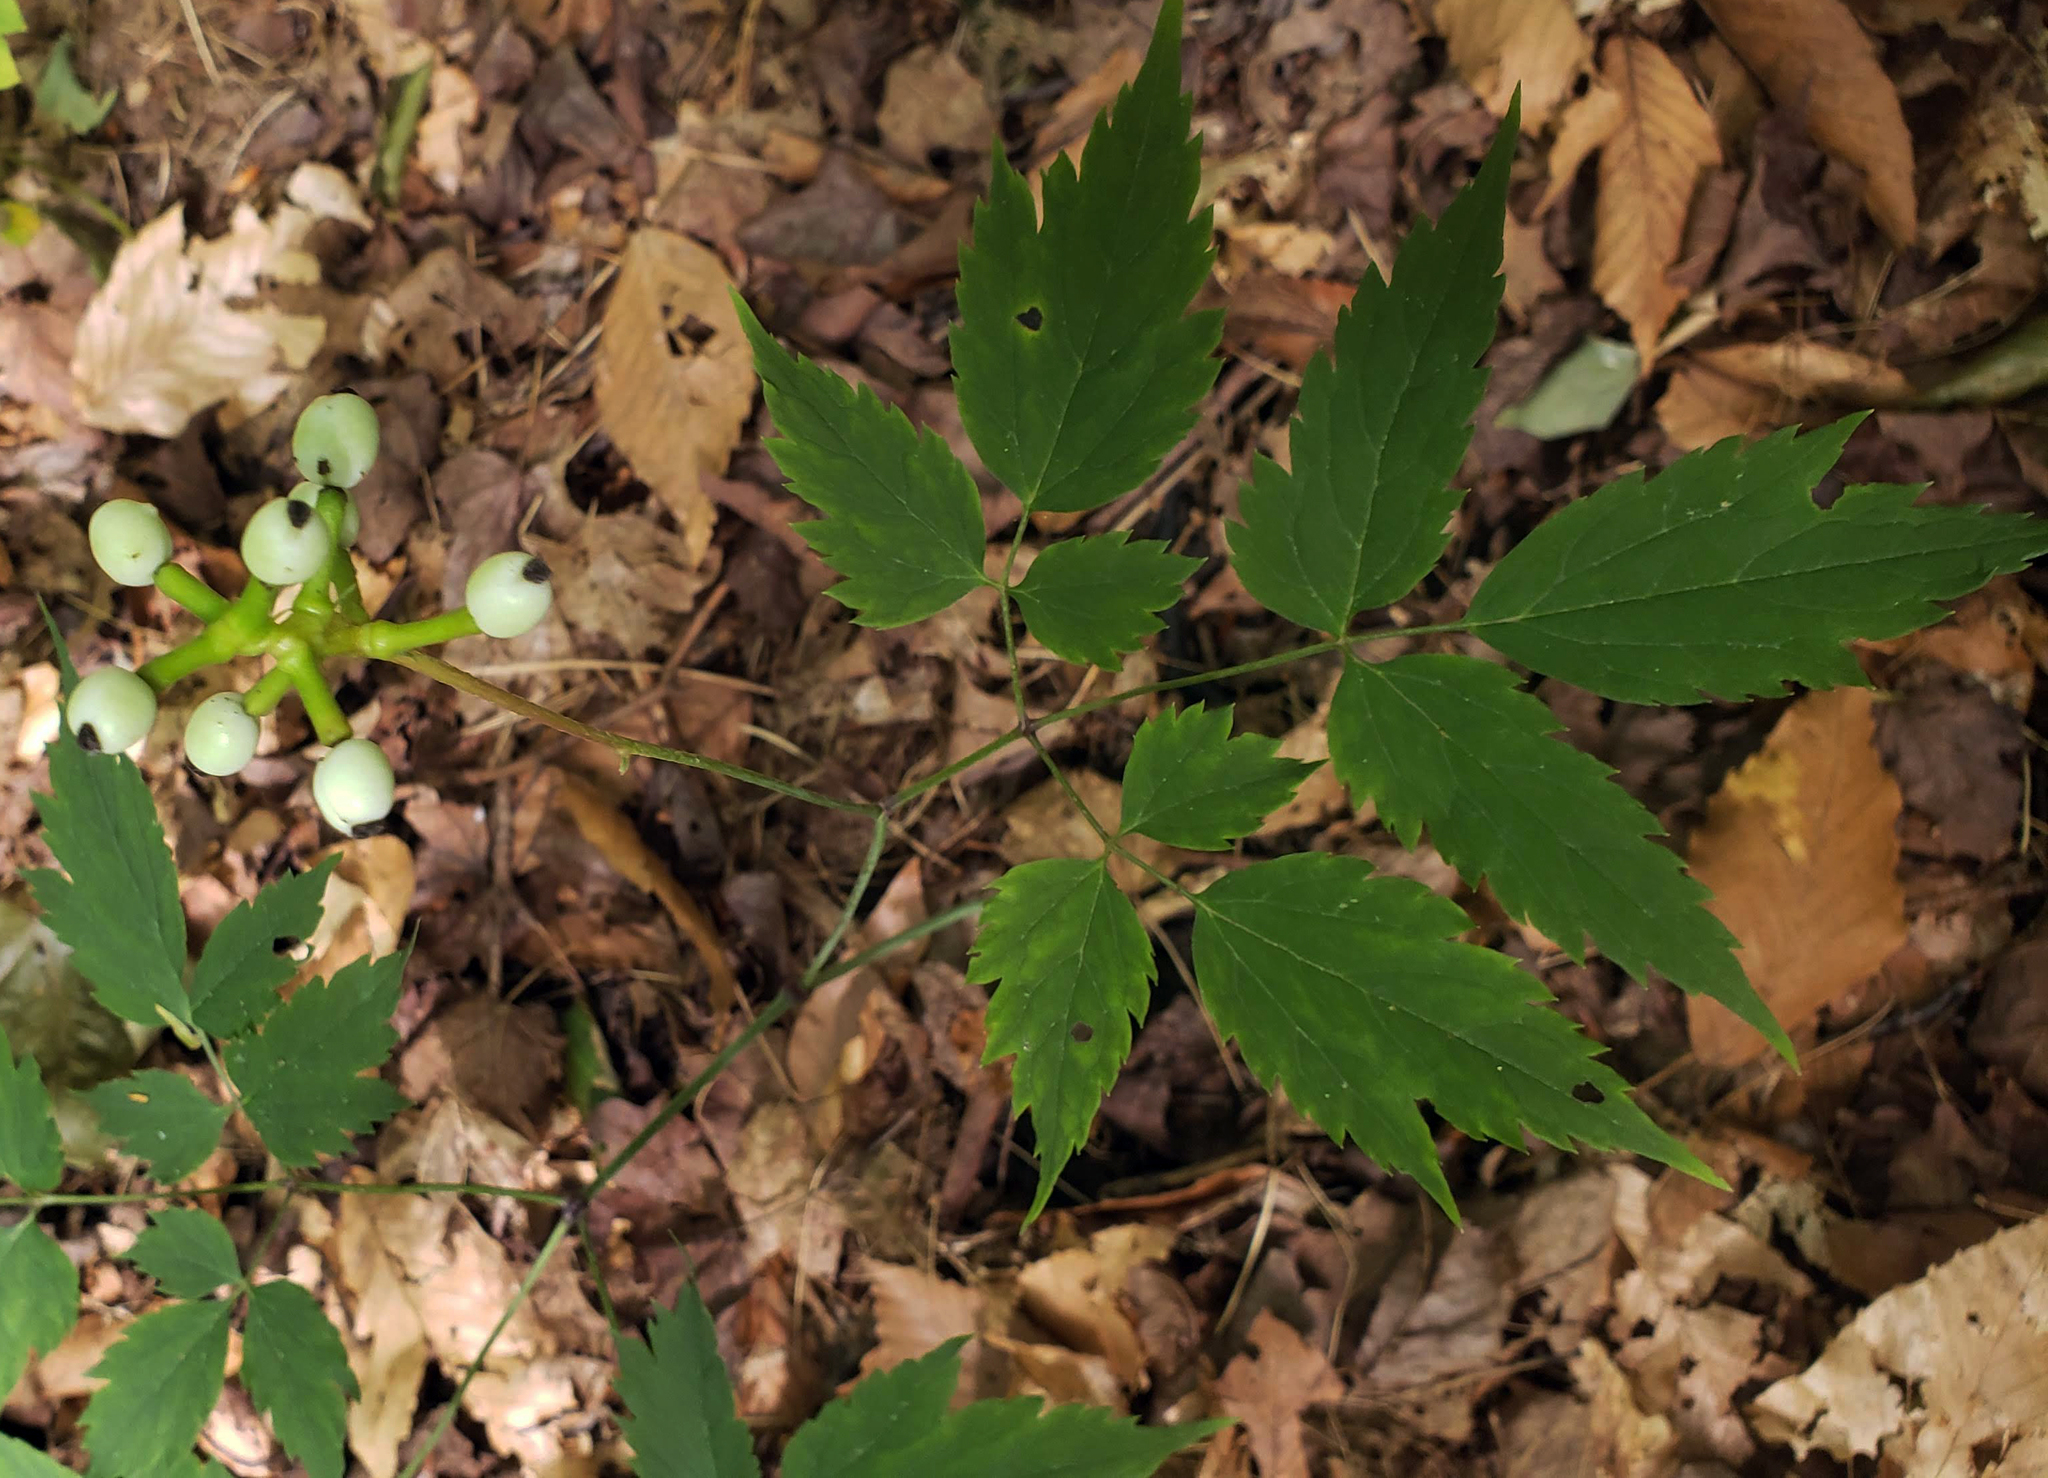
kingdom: Plantae
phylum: Tracheophyta
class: Magnoliopsida
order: Ranunculales
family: Ranunculaceae
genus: Actaea
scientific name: Actaea pachypoda
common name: Doll's-eyes
